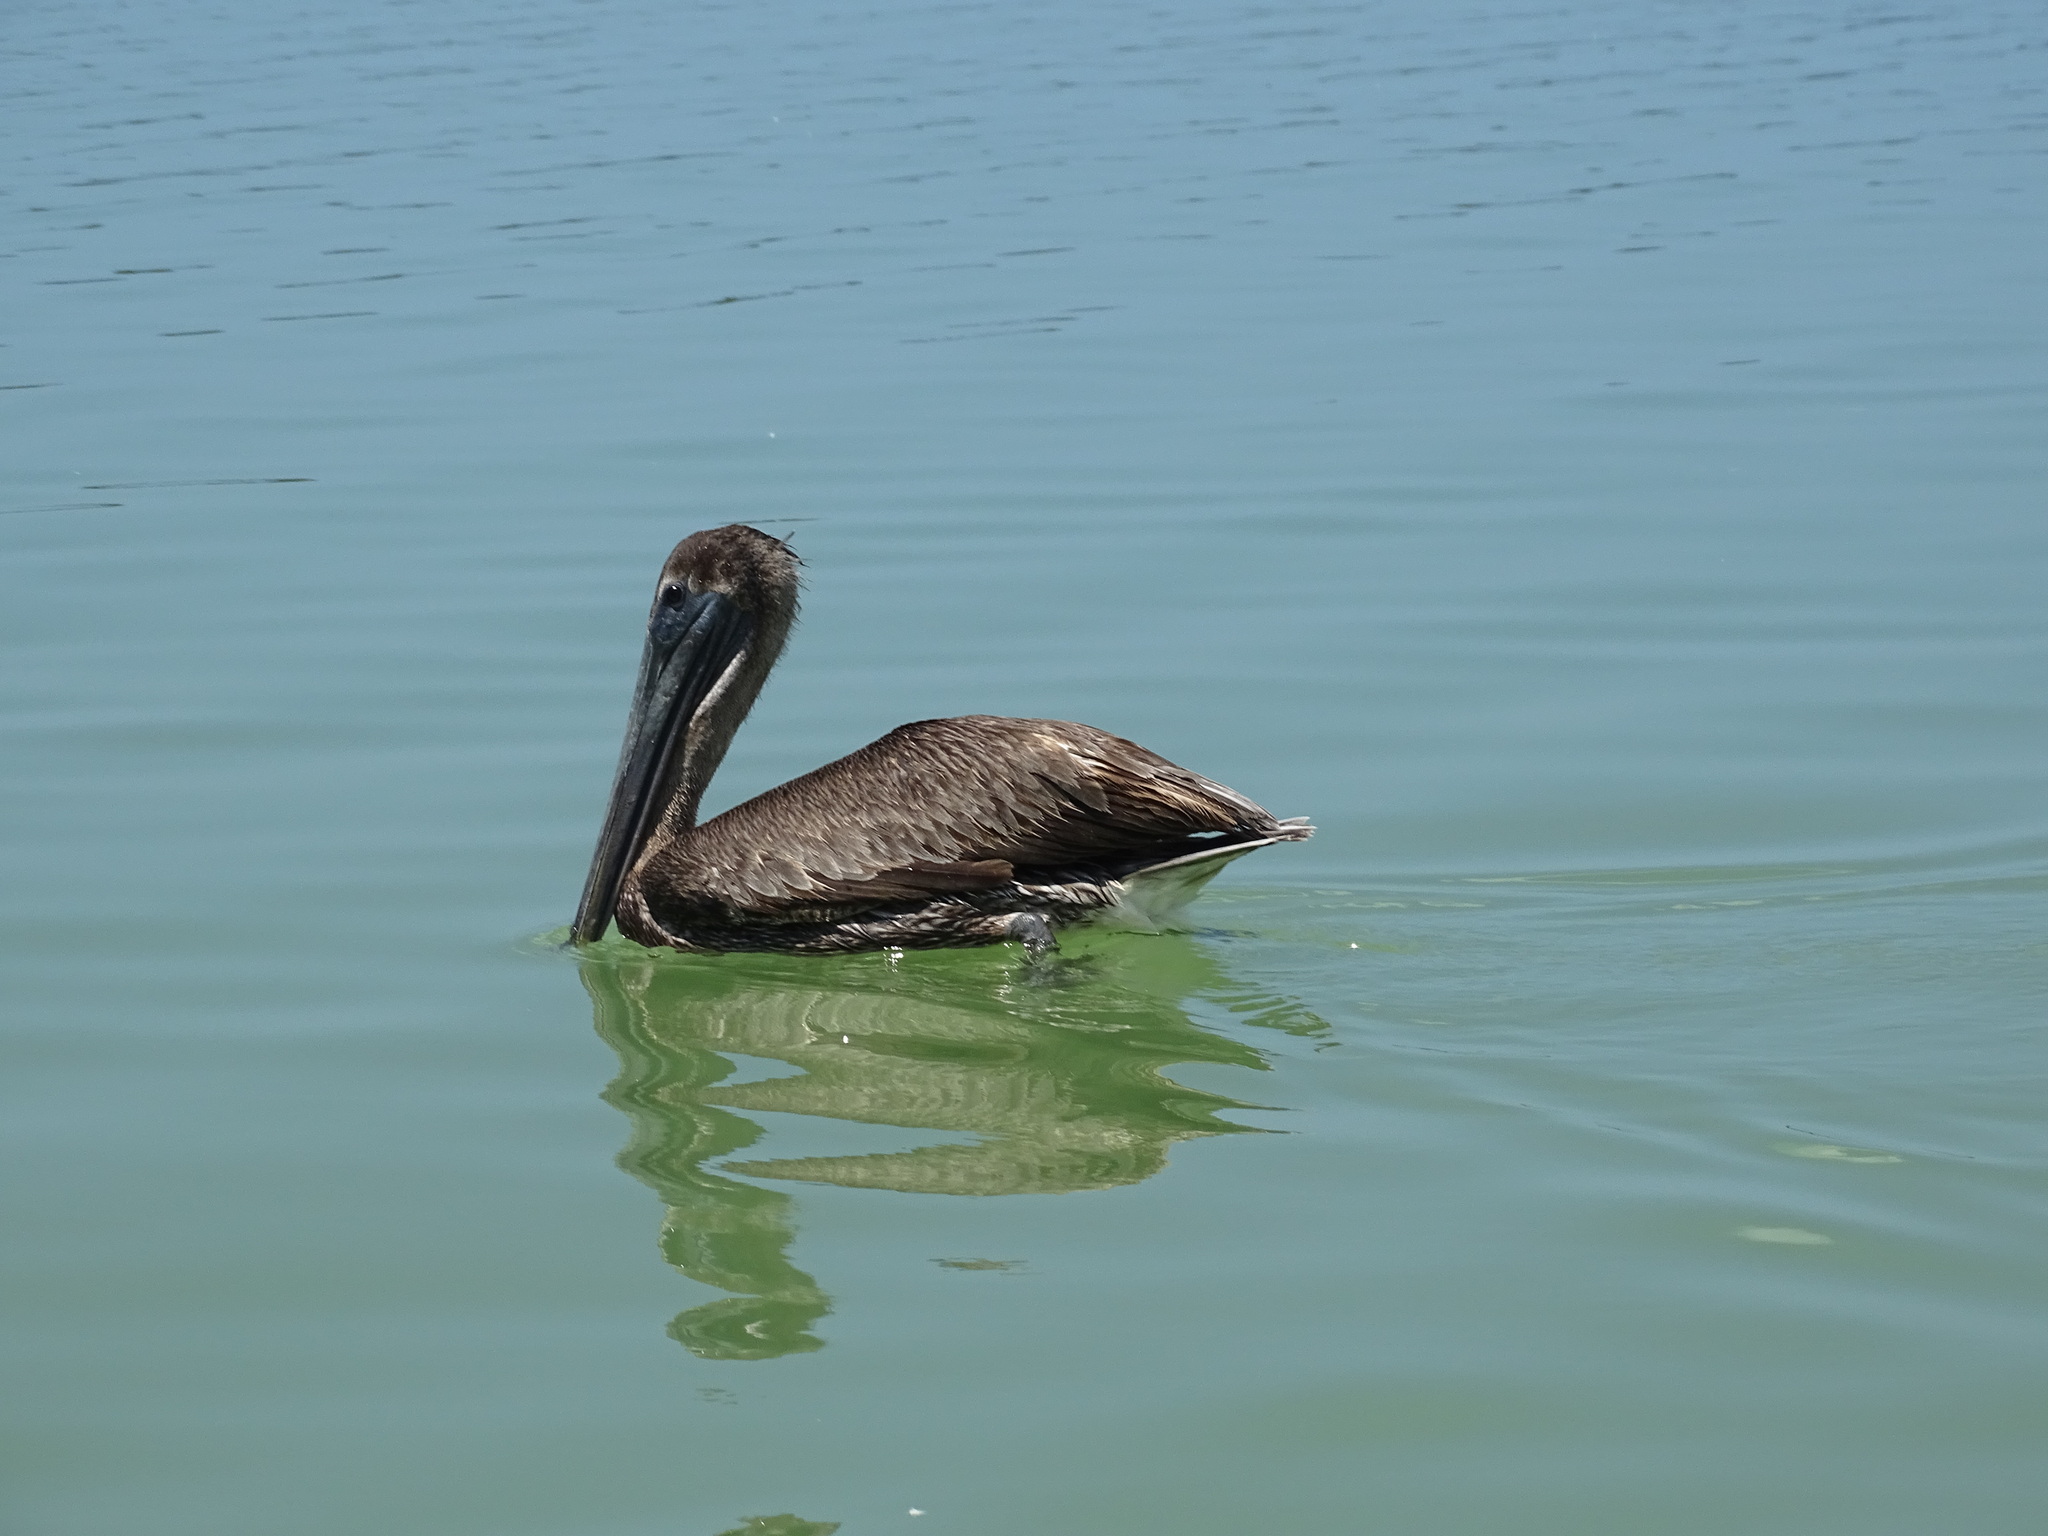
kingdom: Animalia
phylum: Chordata
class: Aves
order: Pelecaniformes
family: Pelecanidae
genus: Pelecanus
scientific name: Pelecanus occidentalis
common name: Brown pelican
